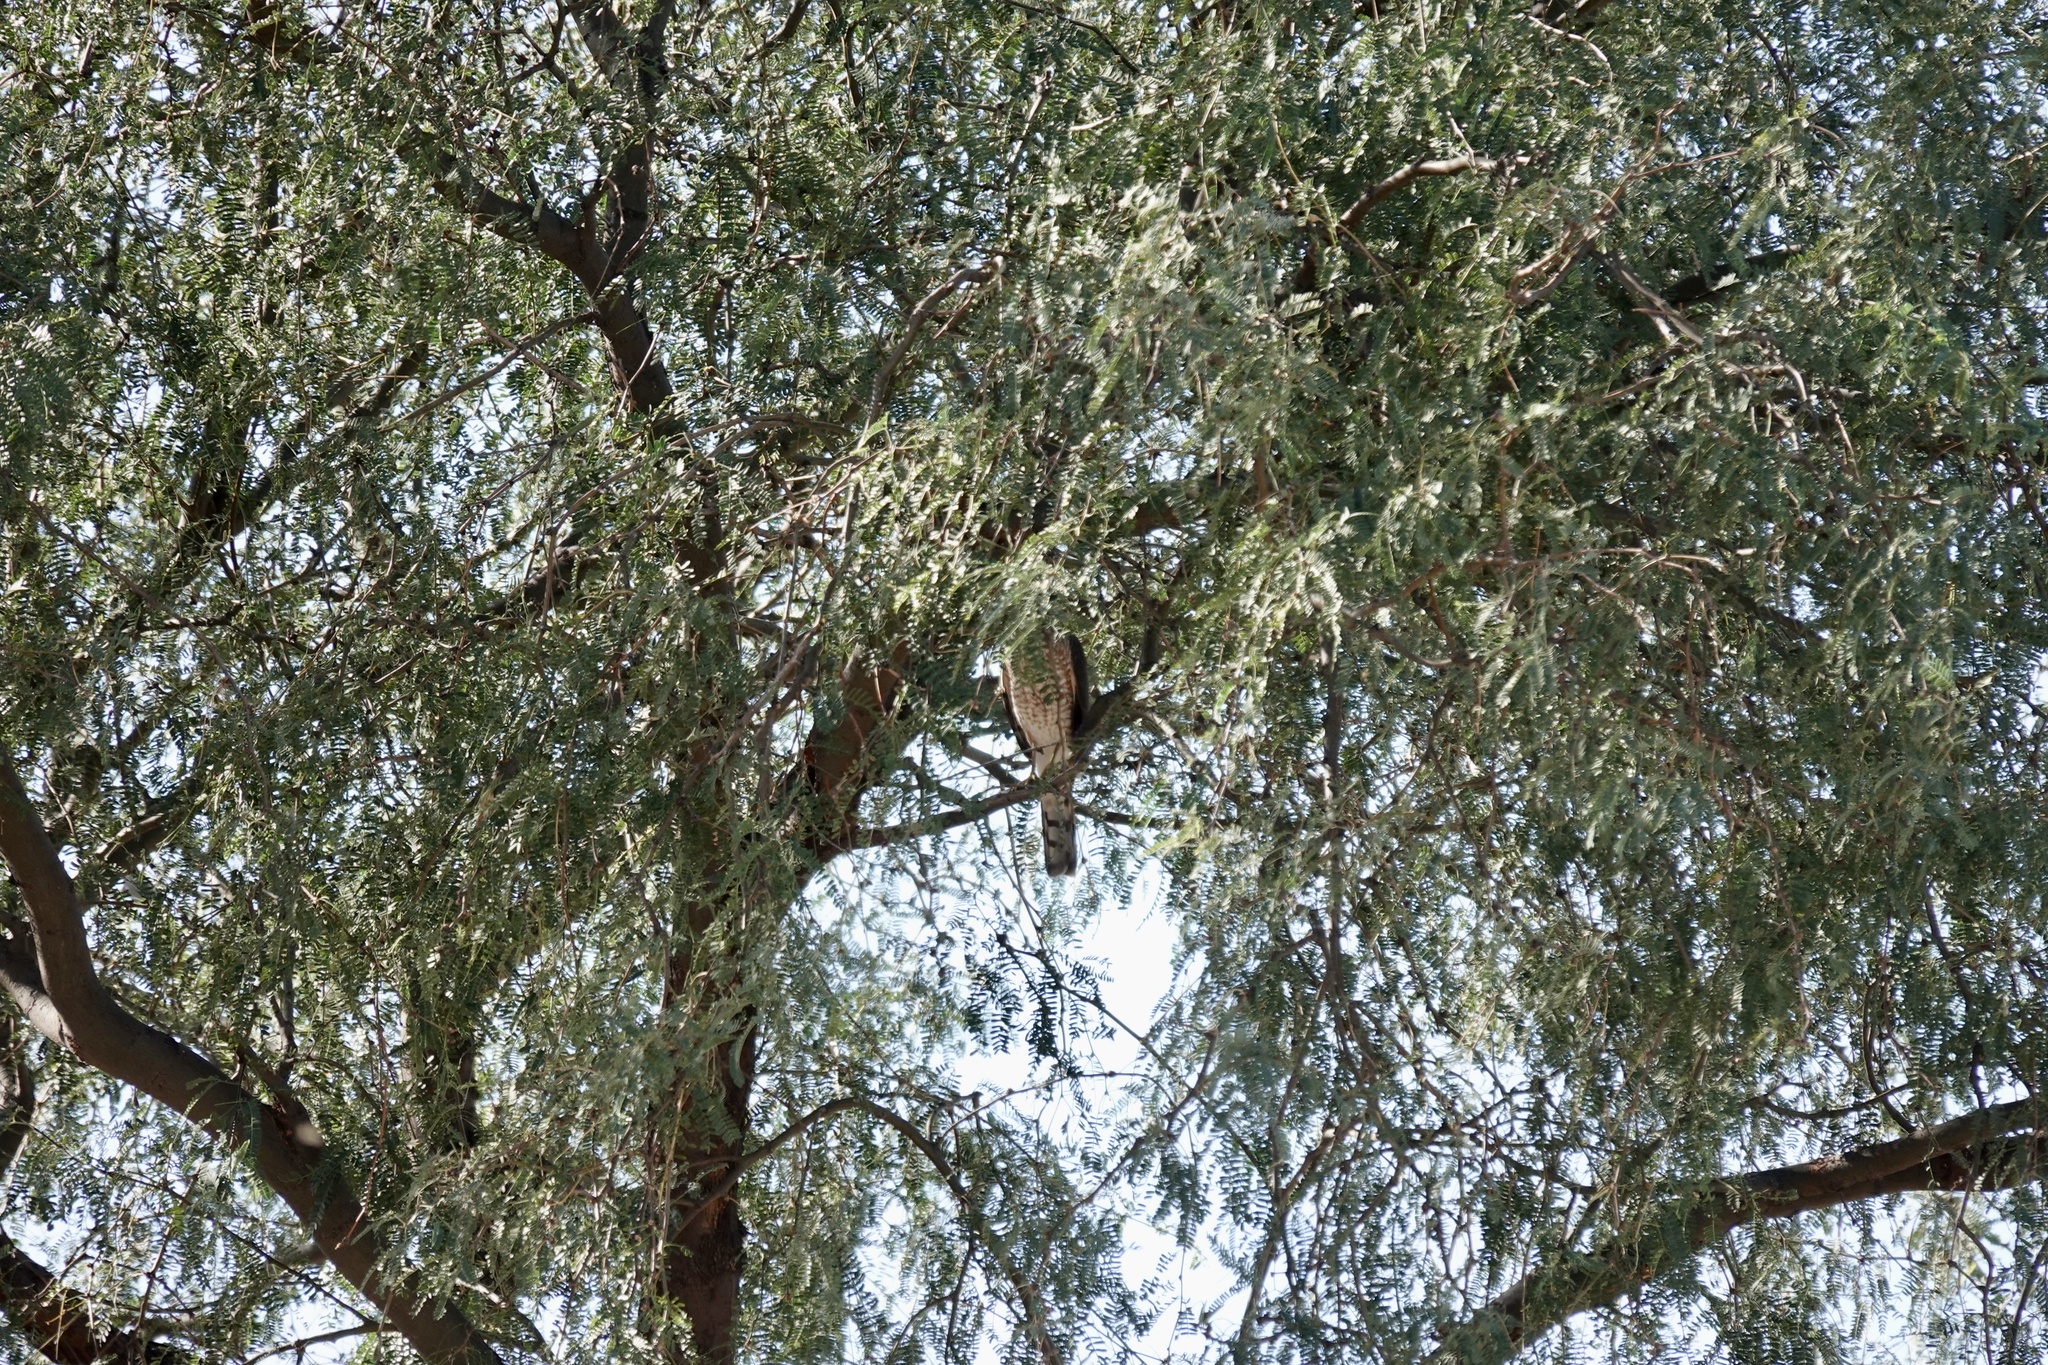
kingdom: Animalia
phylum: Chordata
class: Aves
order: Accipitriformes
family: Accipitridae
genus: Accipiter
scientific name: Accipiter striatus
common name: Sharp-shinned hawk
